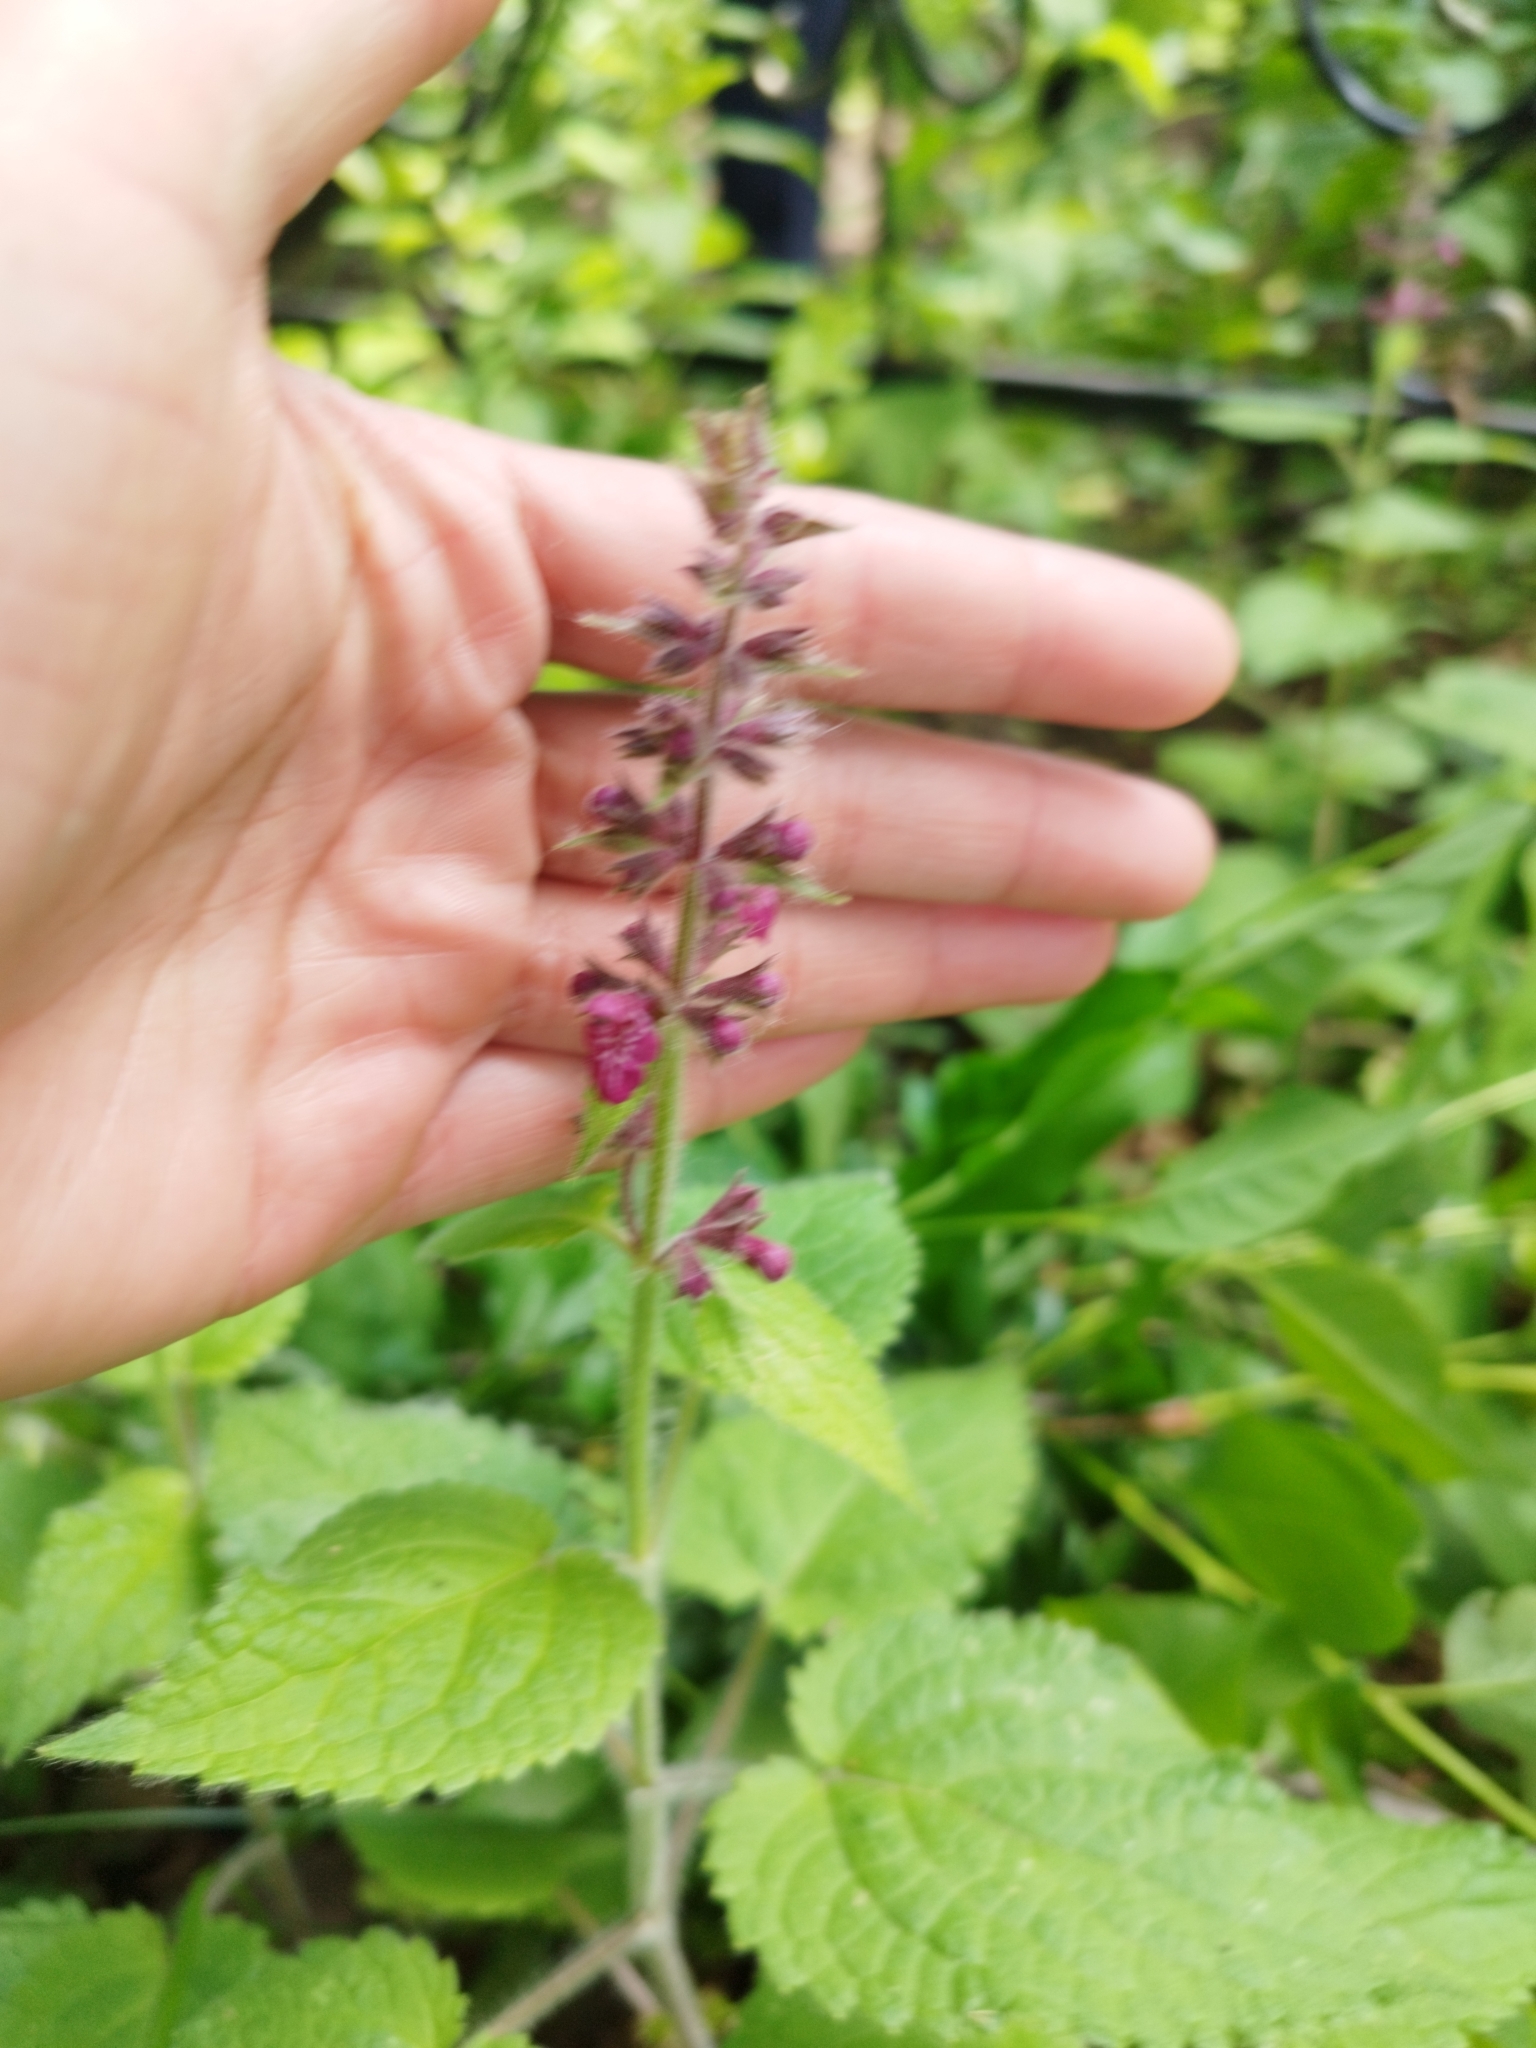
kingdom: Plantae
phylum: Tracheophyta
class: Magnoliopsida
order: Lamiales
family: Lamiaceae
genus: Stachys
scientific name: Stachys sylvatica
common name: Hedge woundwort
